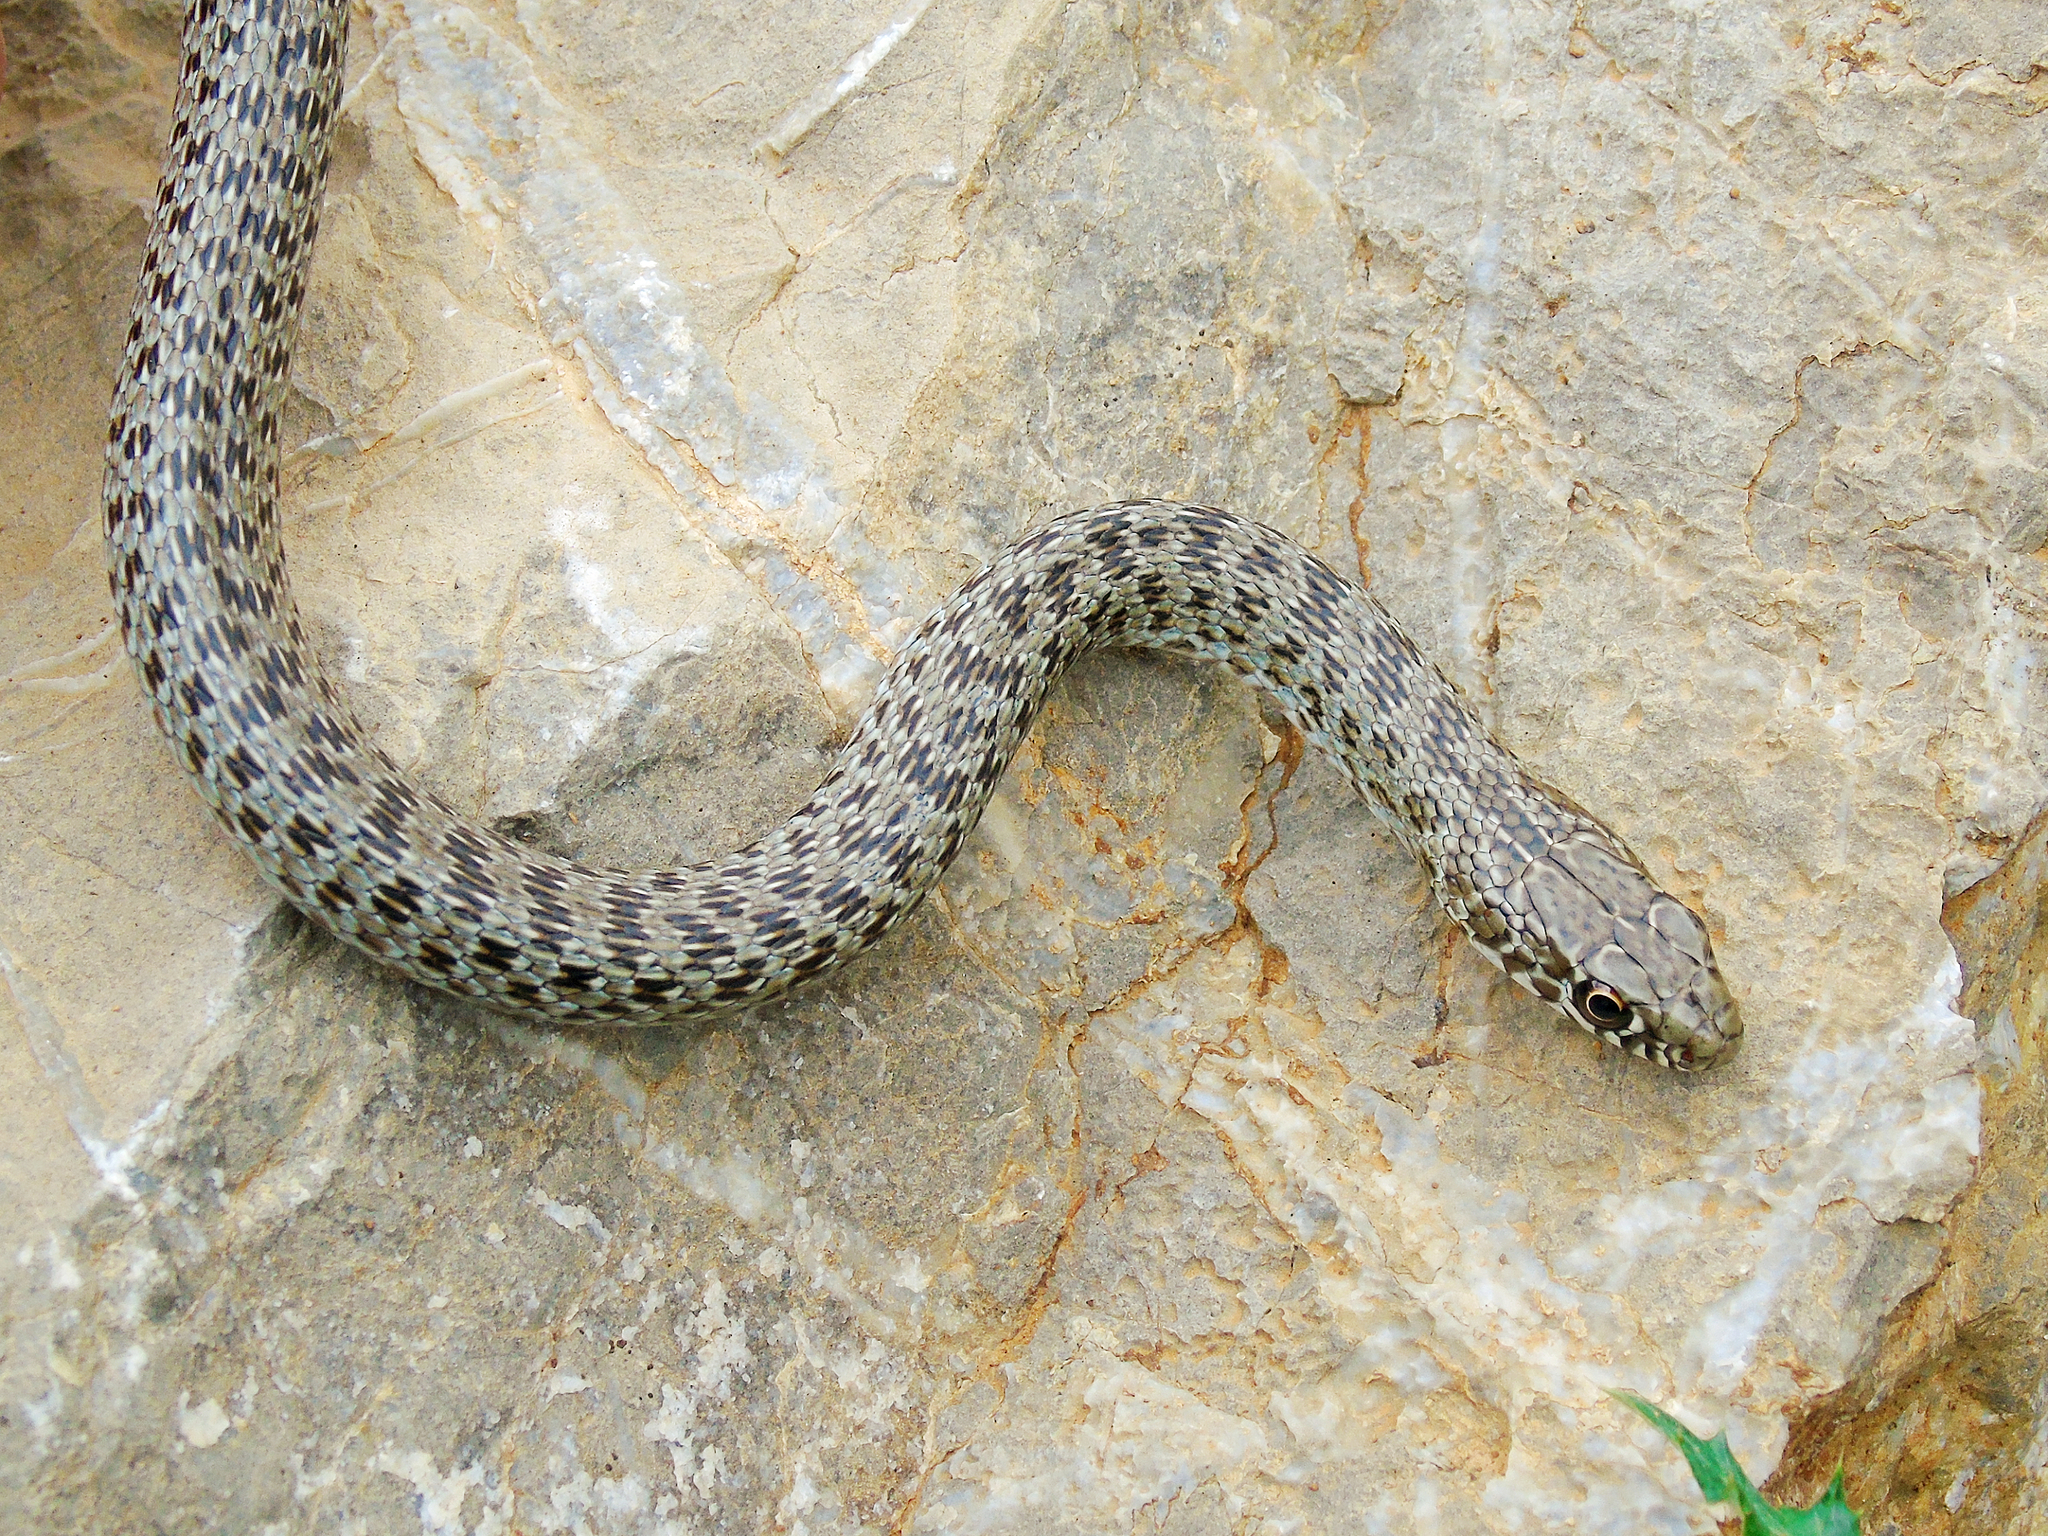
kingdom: Animalia
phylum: Chordata
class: Squamata
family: Colubridae
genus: Dolichophis
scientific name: Dolichophis jugularis
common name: Large whip snake
